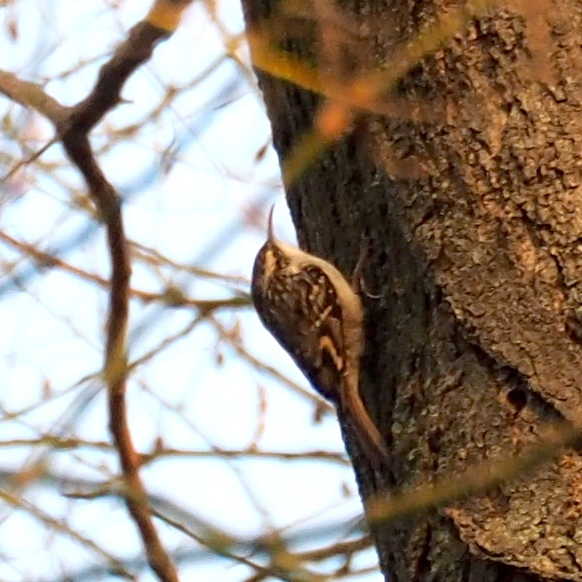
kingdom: Animalia
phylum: Chordata
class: Aves
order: Passeriformes
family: Certhiidae
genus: Certhia
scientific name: Certhia brachydactyla
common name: Short-toed treecreeper
